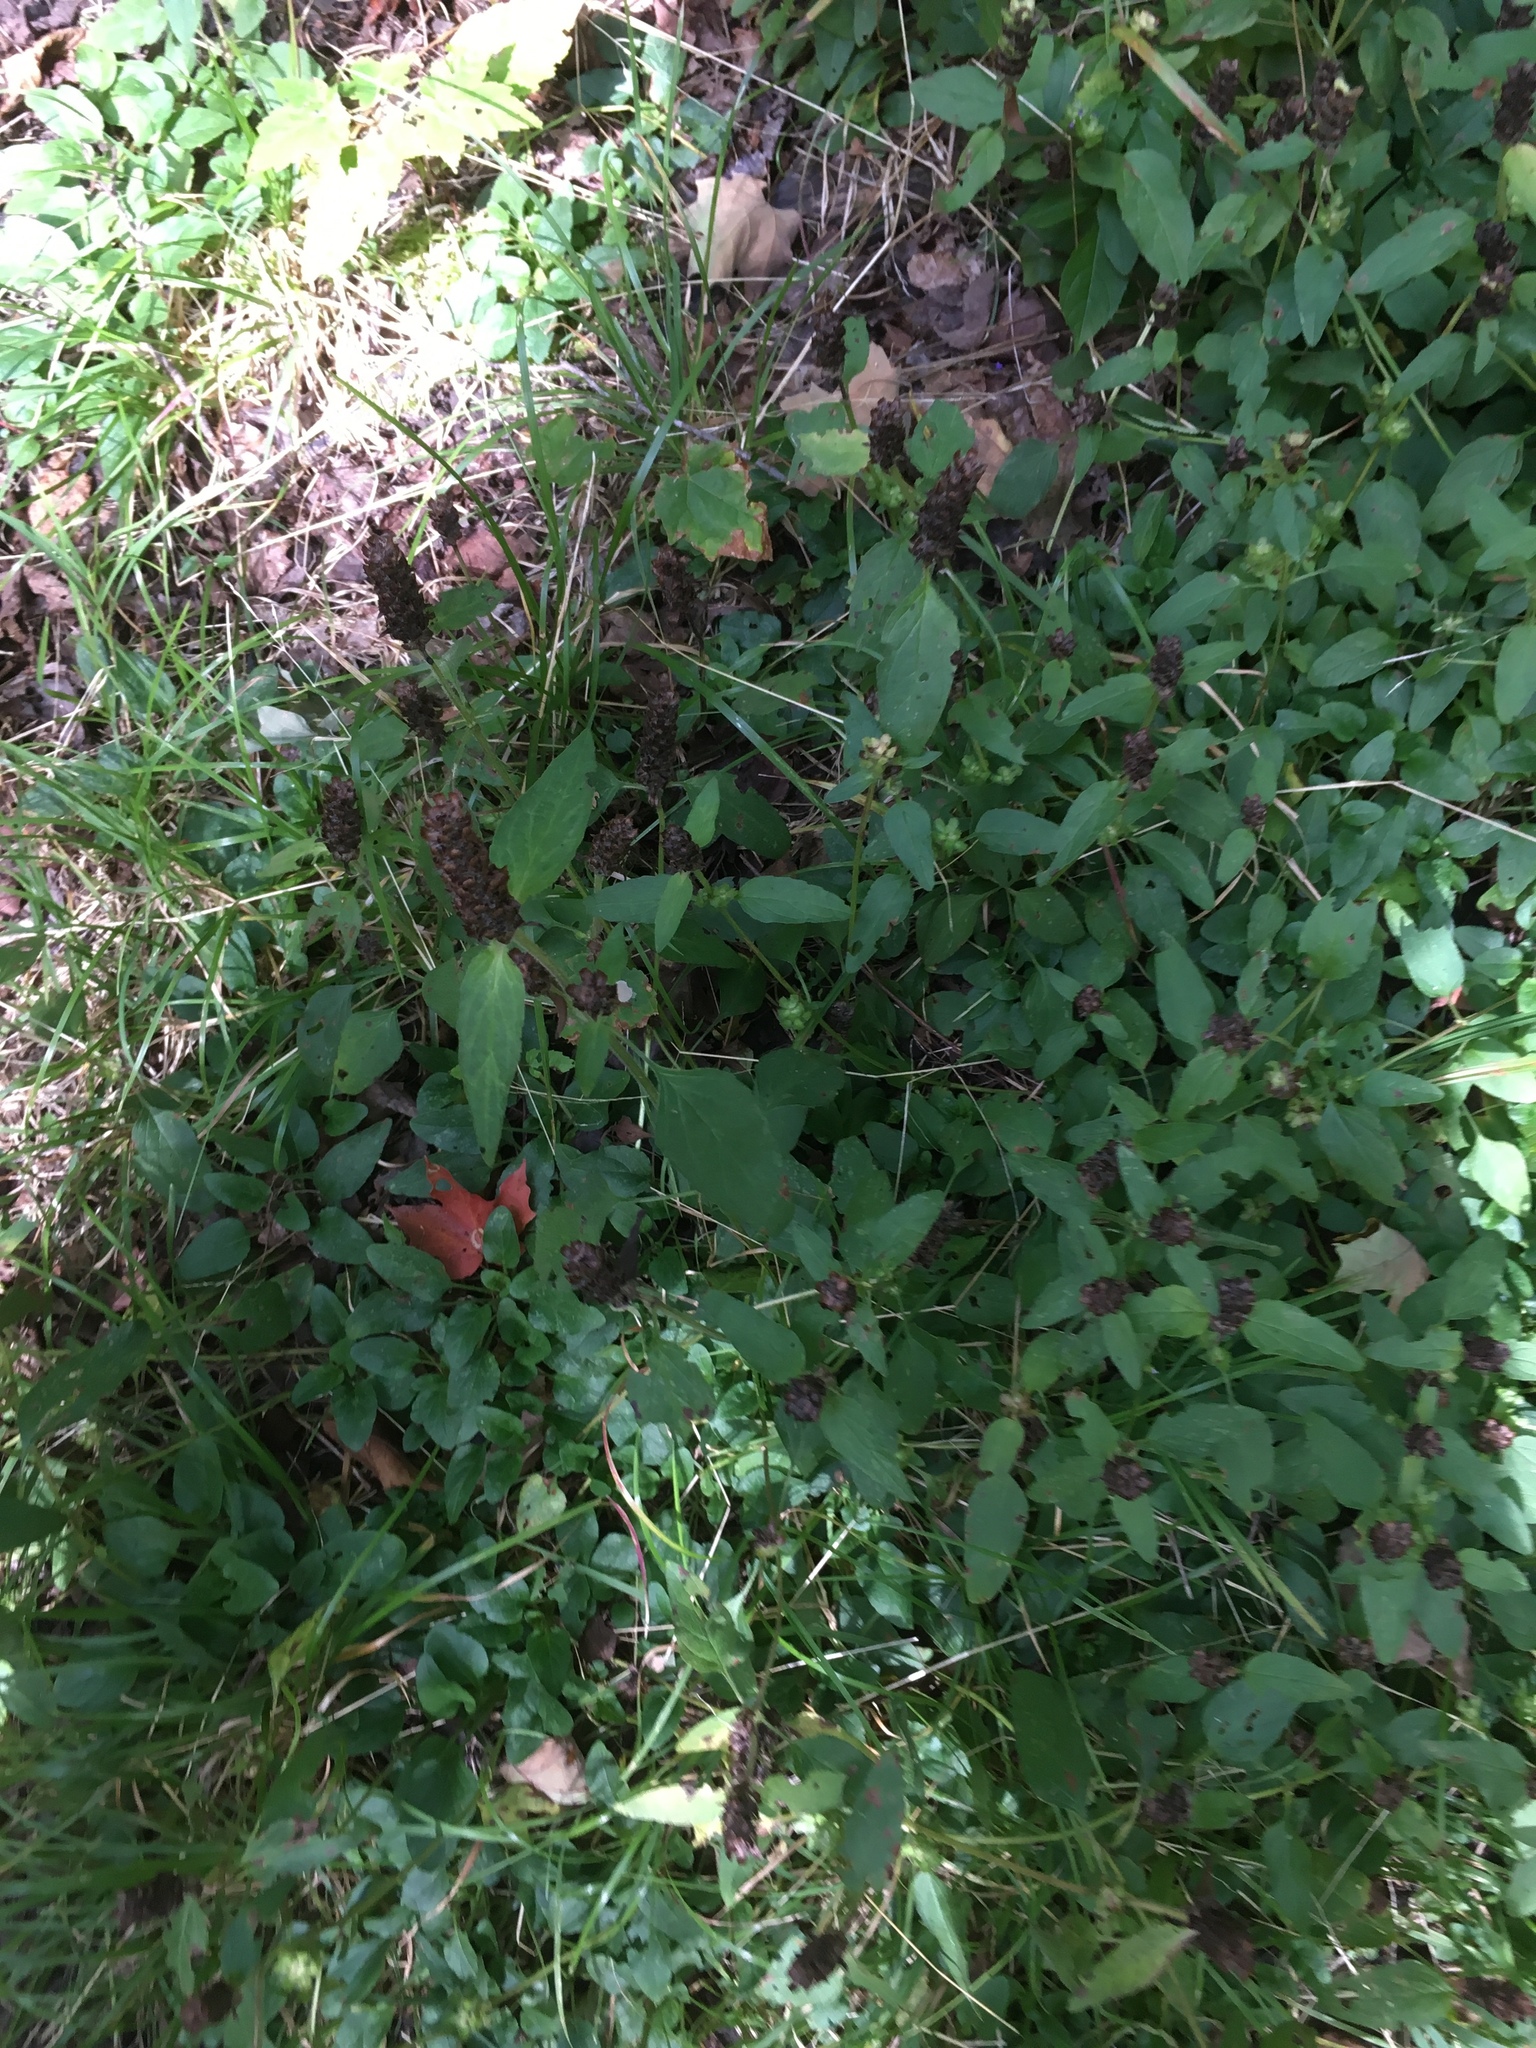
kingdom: Plantae
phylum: Tracheophyta
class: Magnoliopsida
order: Lamiales
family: Lamiaceae
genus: Prunella
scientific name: Prunella vulgaris
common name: Heal-all
